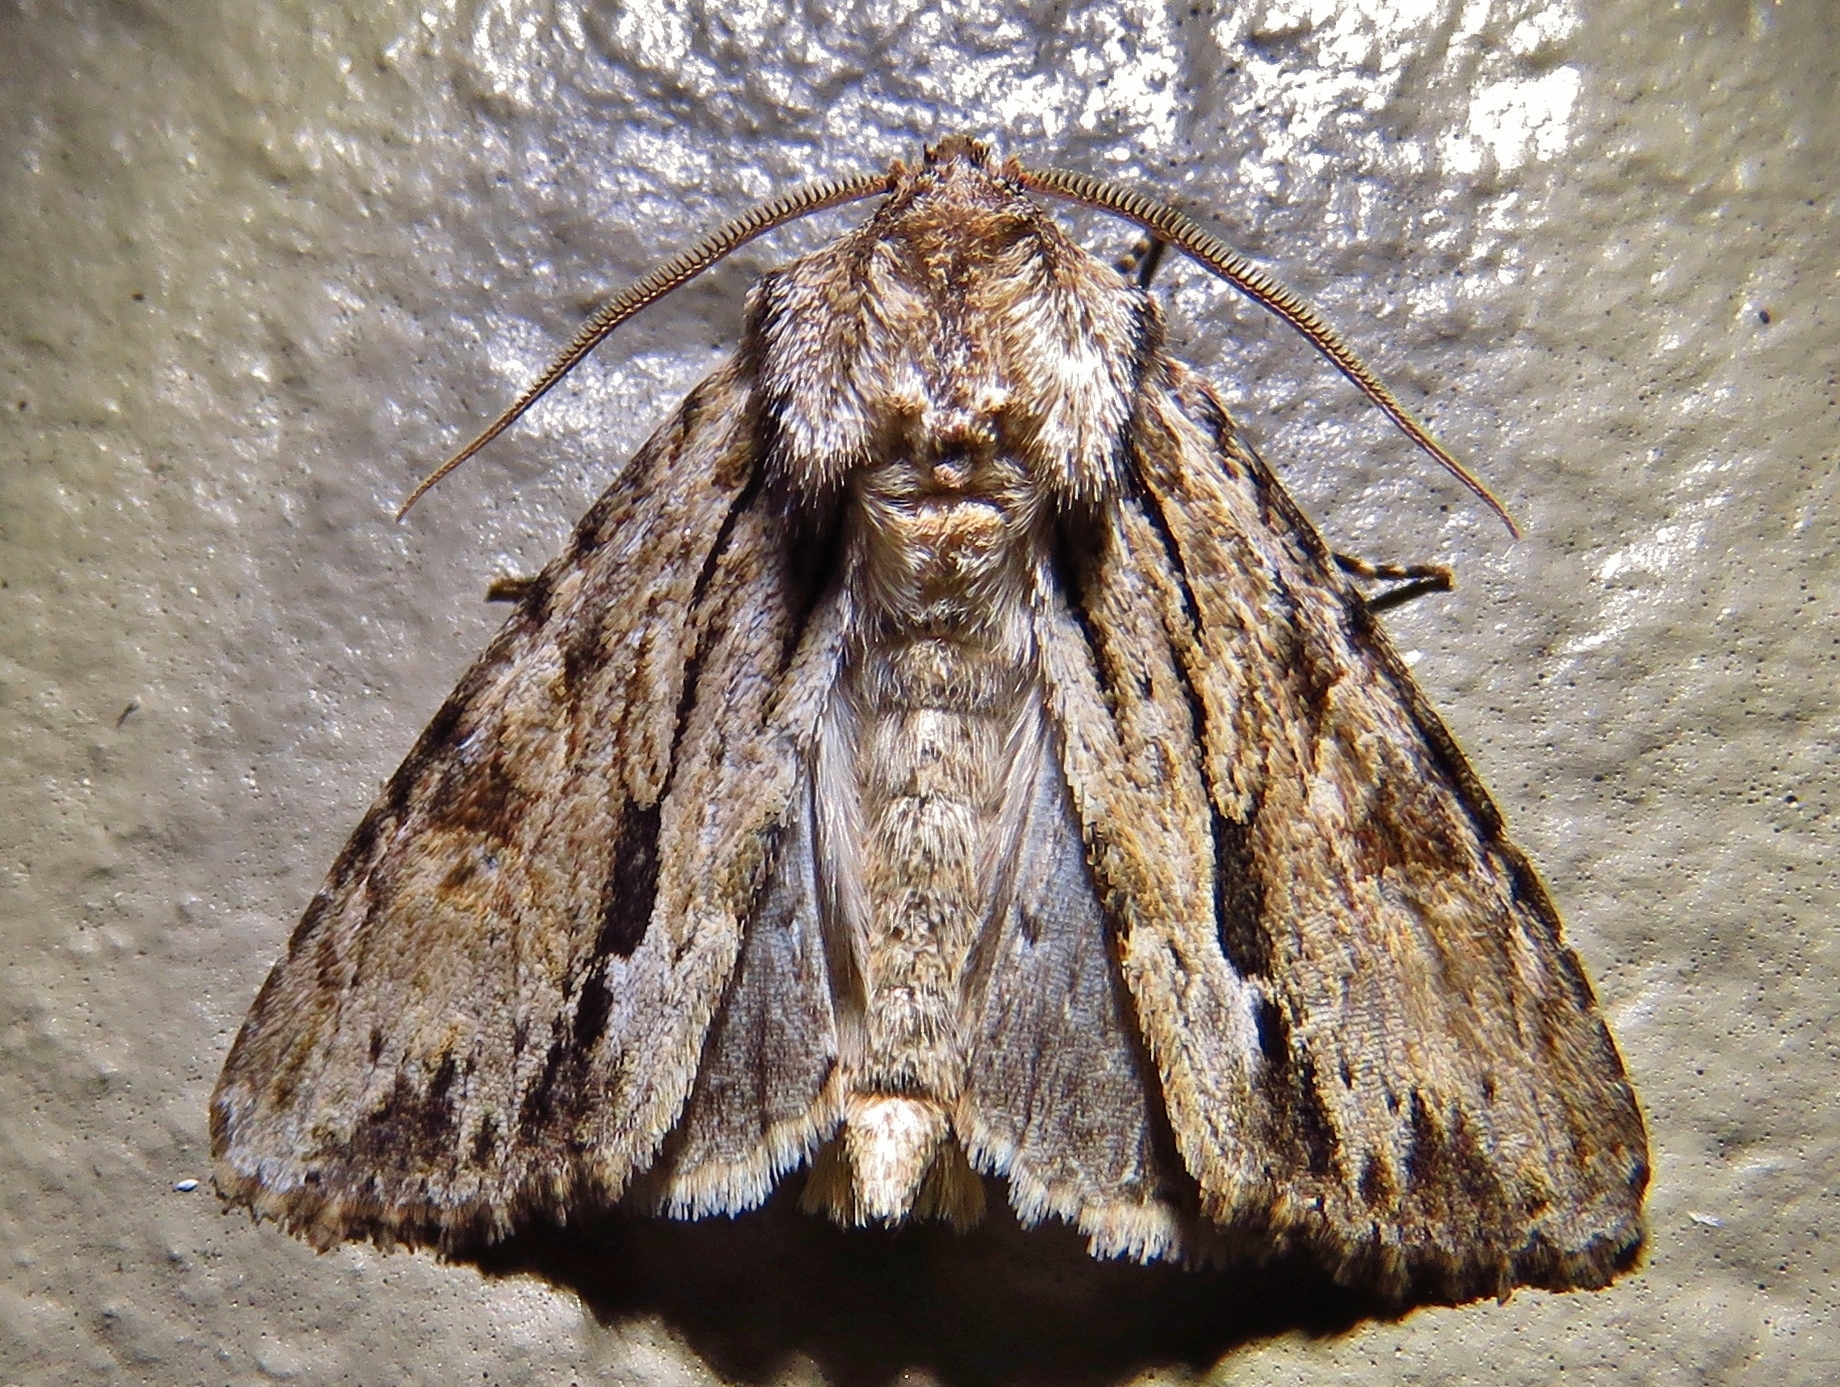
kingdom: Animalia
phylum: Arthropoda
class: Insecta
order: Lepidoptera
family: Noctuidae
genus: Achatia
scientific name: Achatia mucens
